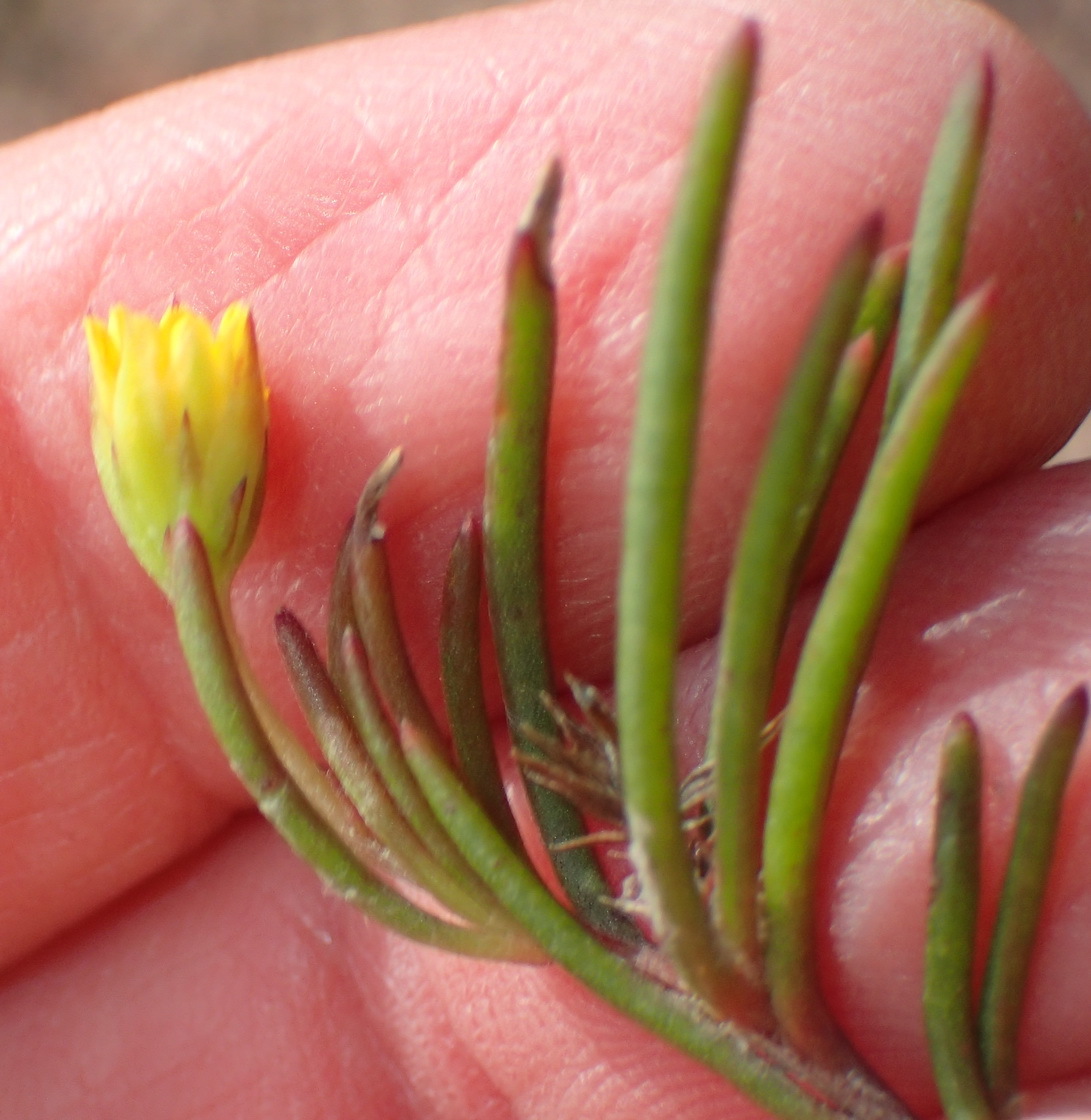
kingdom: Plantae
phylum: Tracheophyta
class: Magnoliopsida
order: Asterales
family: Asteraceae
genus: Osteospermum
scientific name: Osteospermum triquetrum
